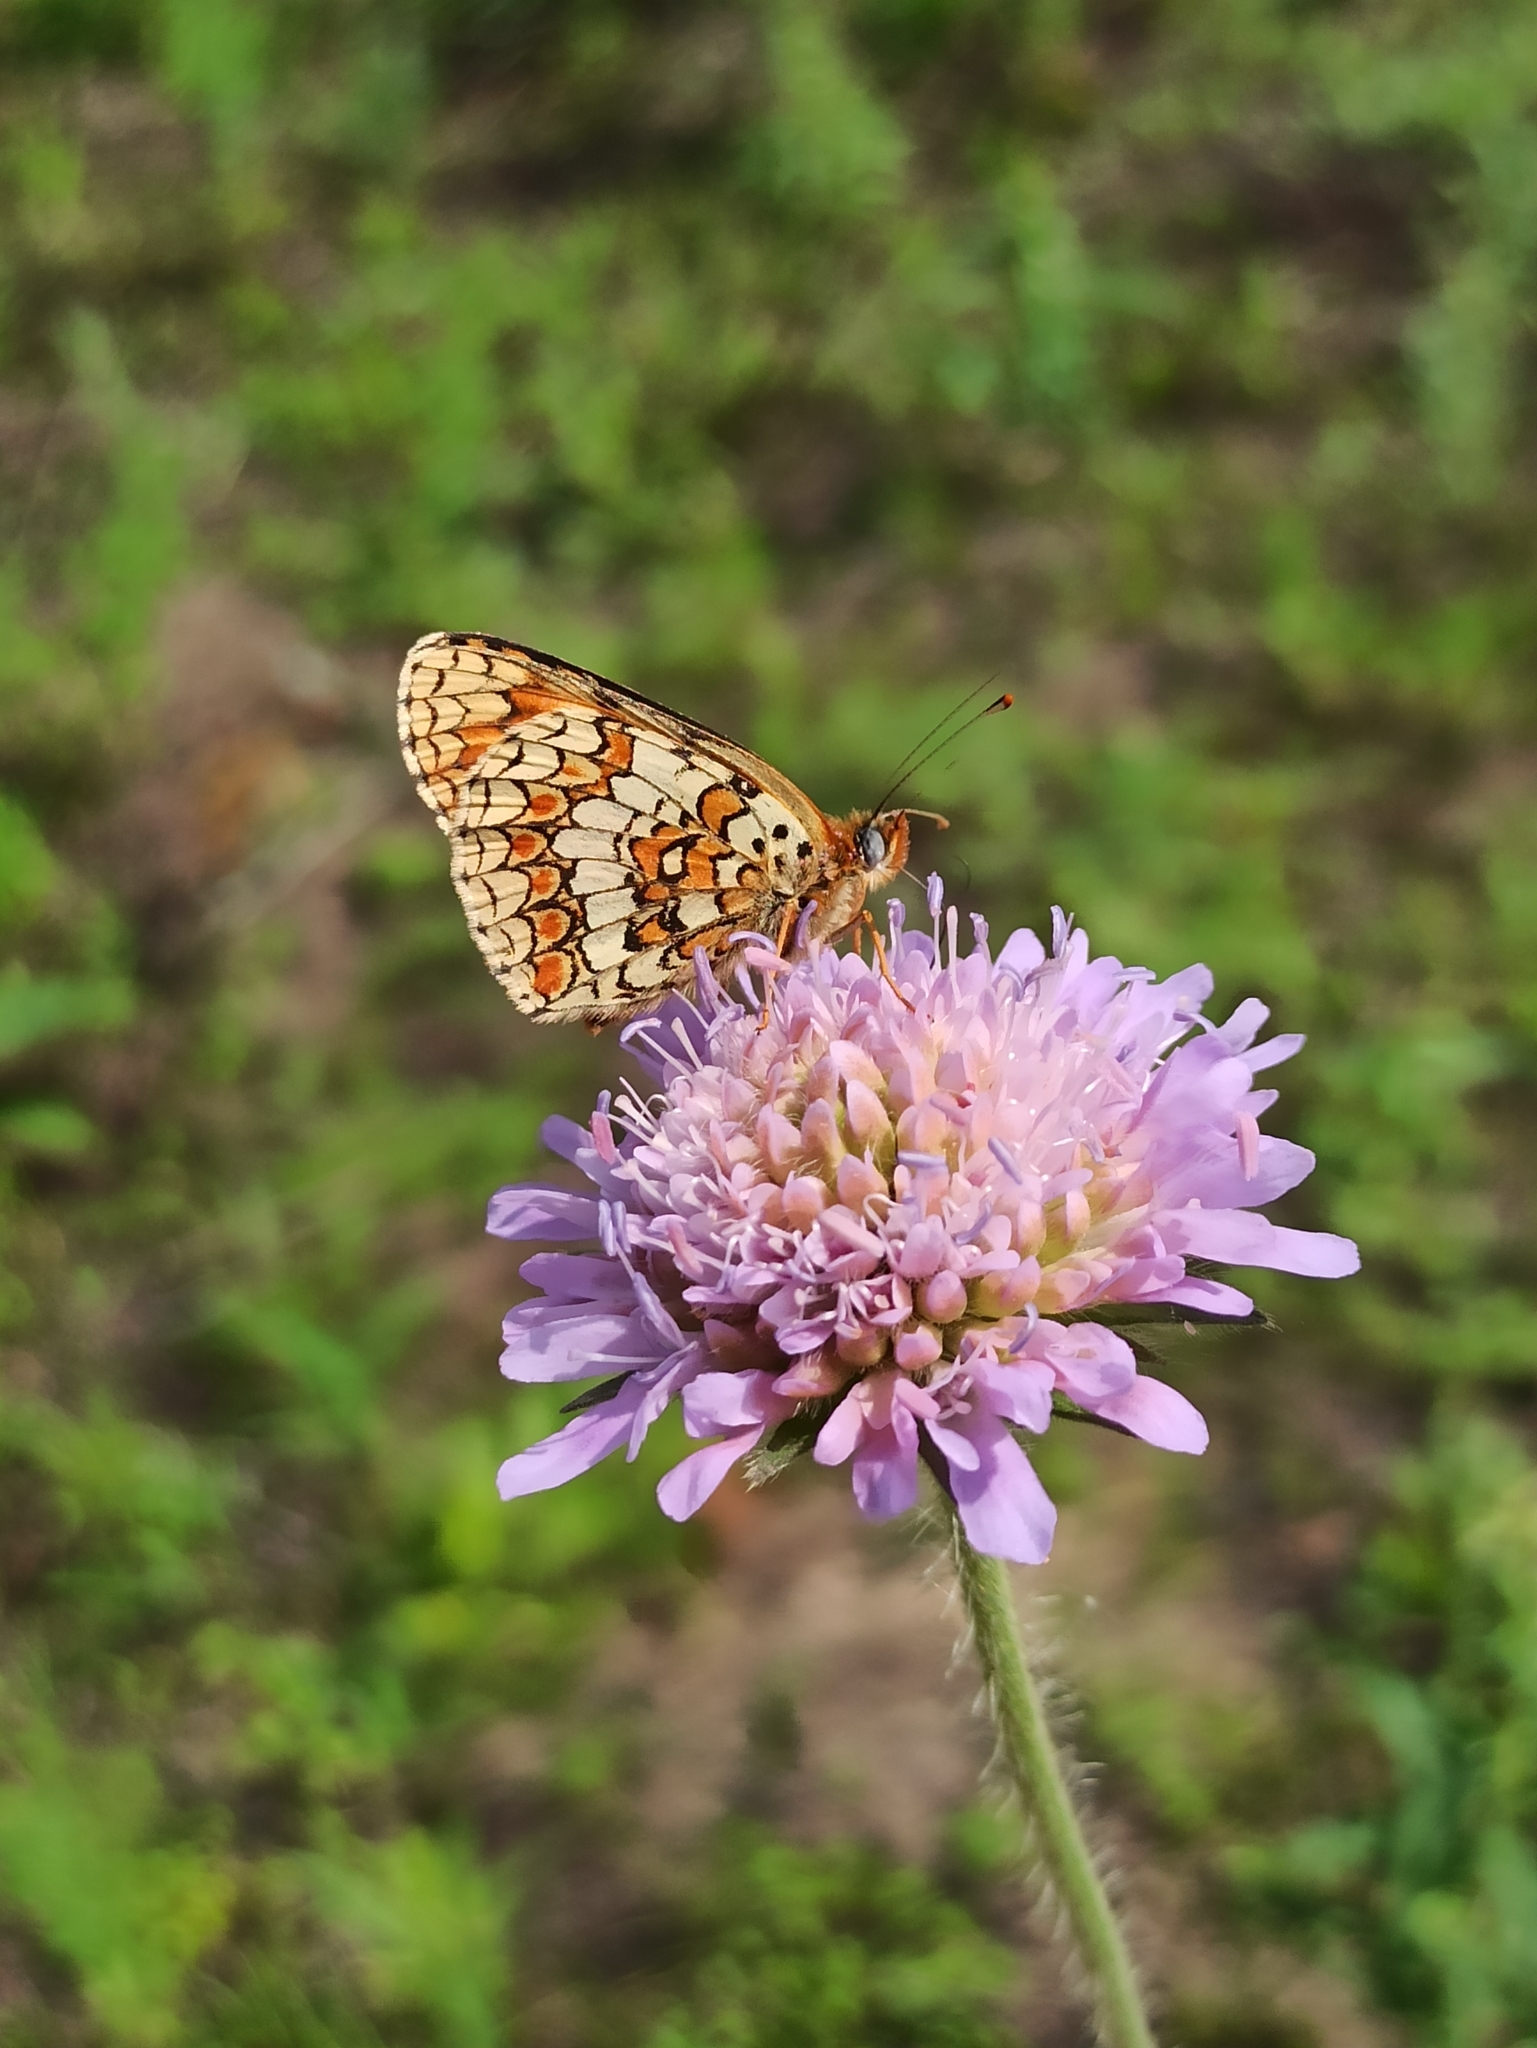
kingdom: Plantae
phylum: Tracheophyta
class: Magnoliopsida
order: Dipsacales
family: Caprifoliaceae
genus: Knautia
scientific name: Knautia arvensis
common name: Field scabiosa
